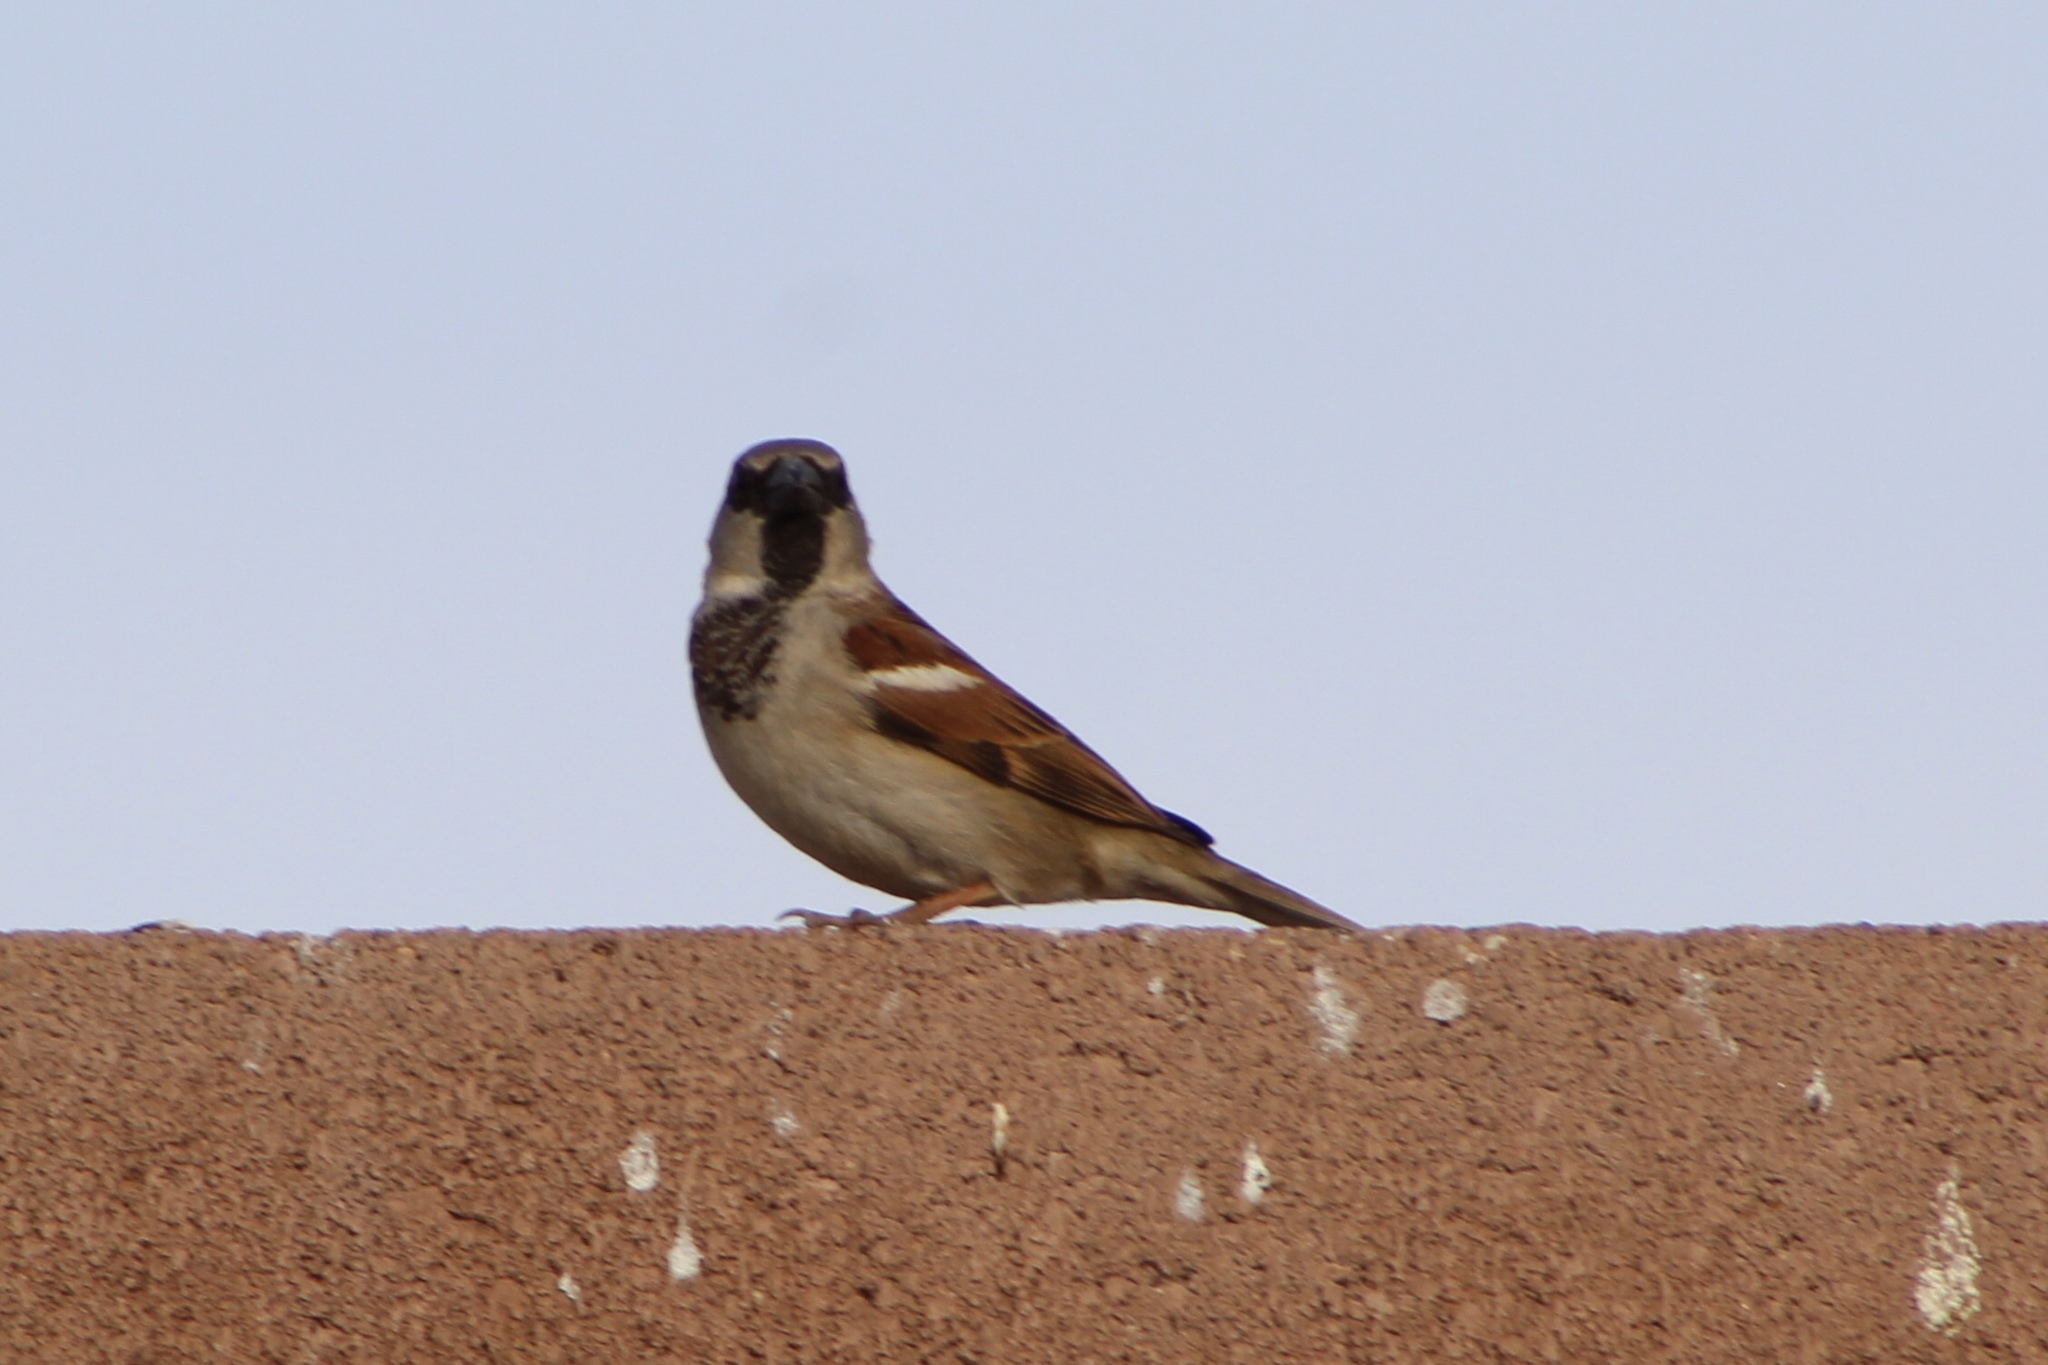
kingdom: Animalia
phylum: Chordata
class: Aves
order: Passeriformes
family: Passeridae
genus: Passer
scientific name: Passer domesticus
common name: House sparrow
